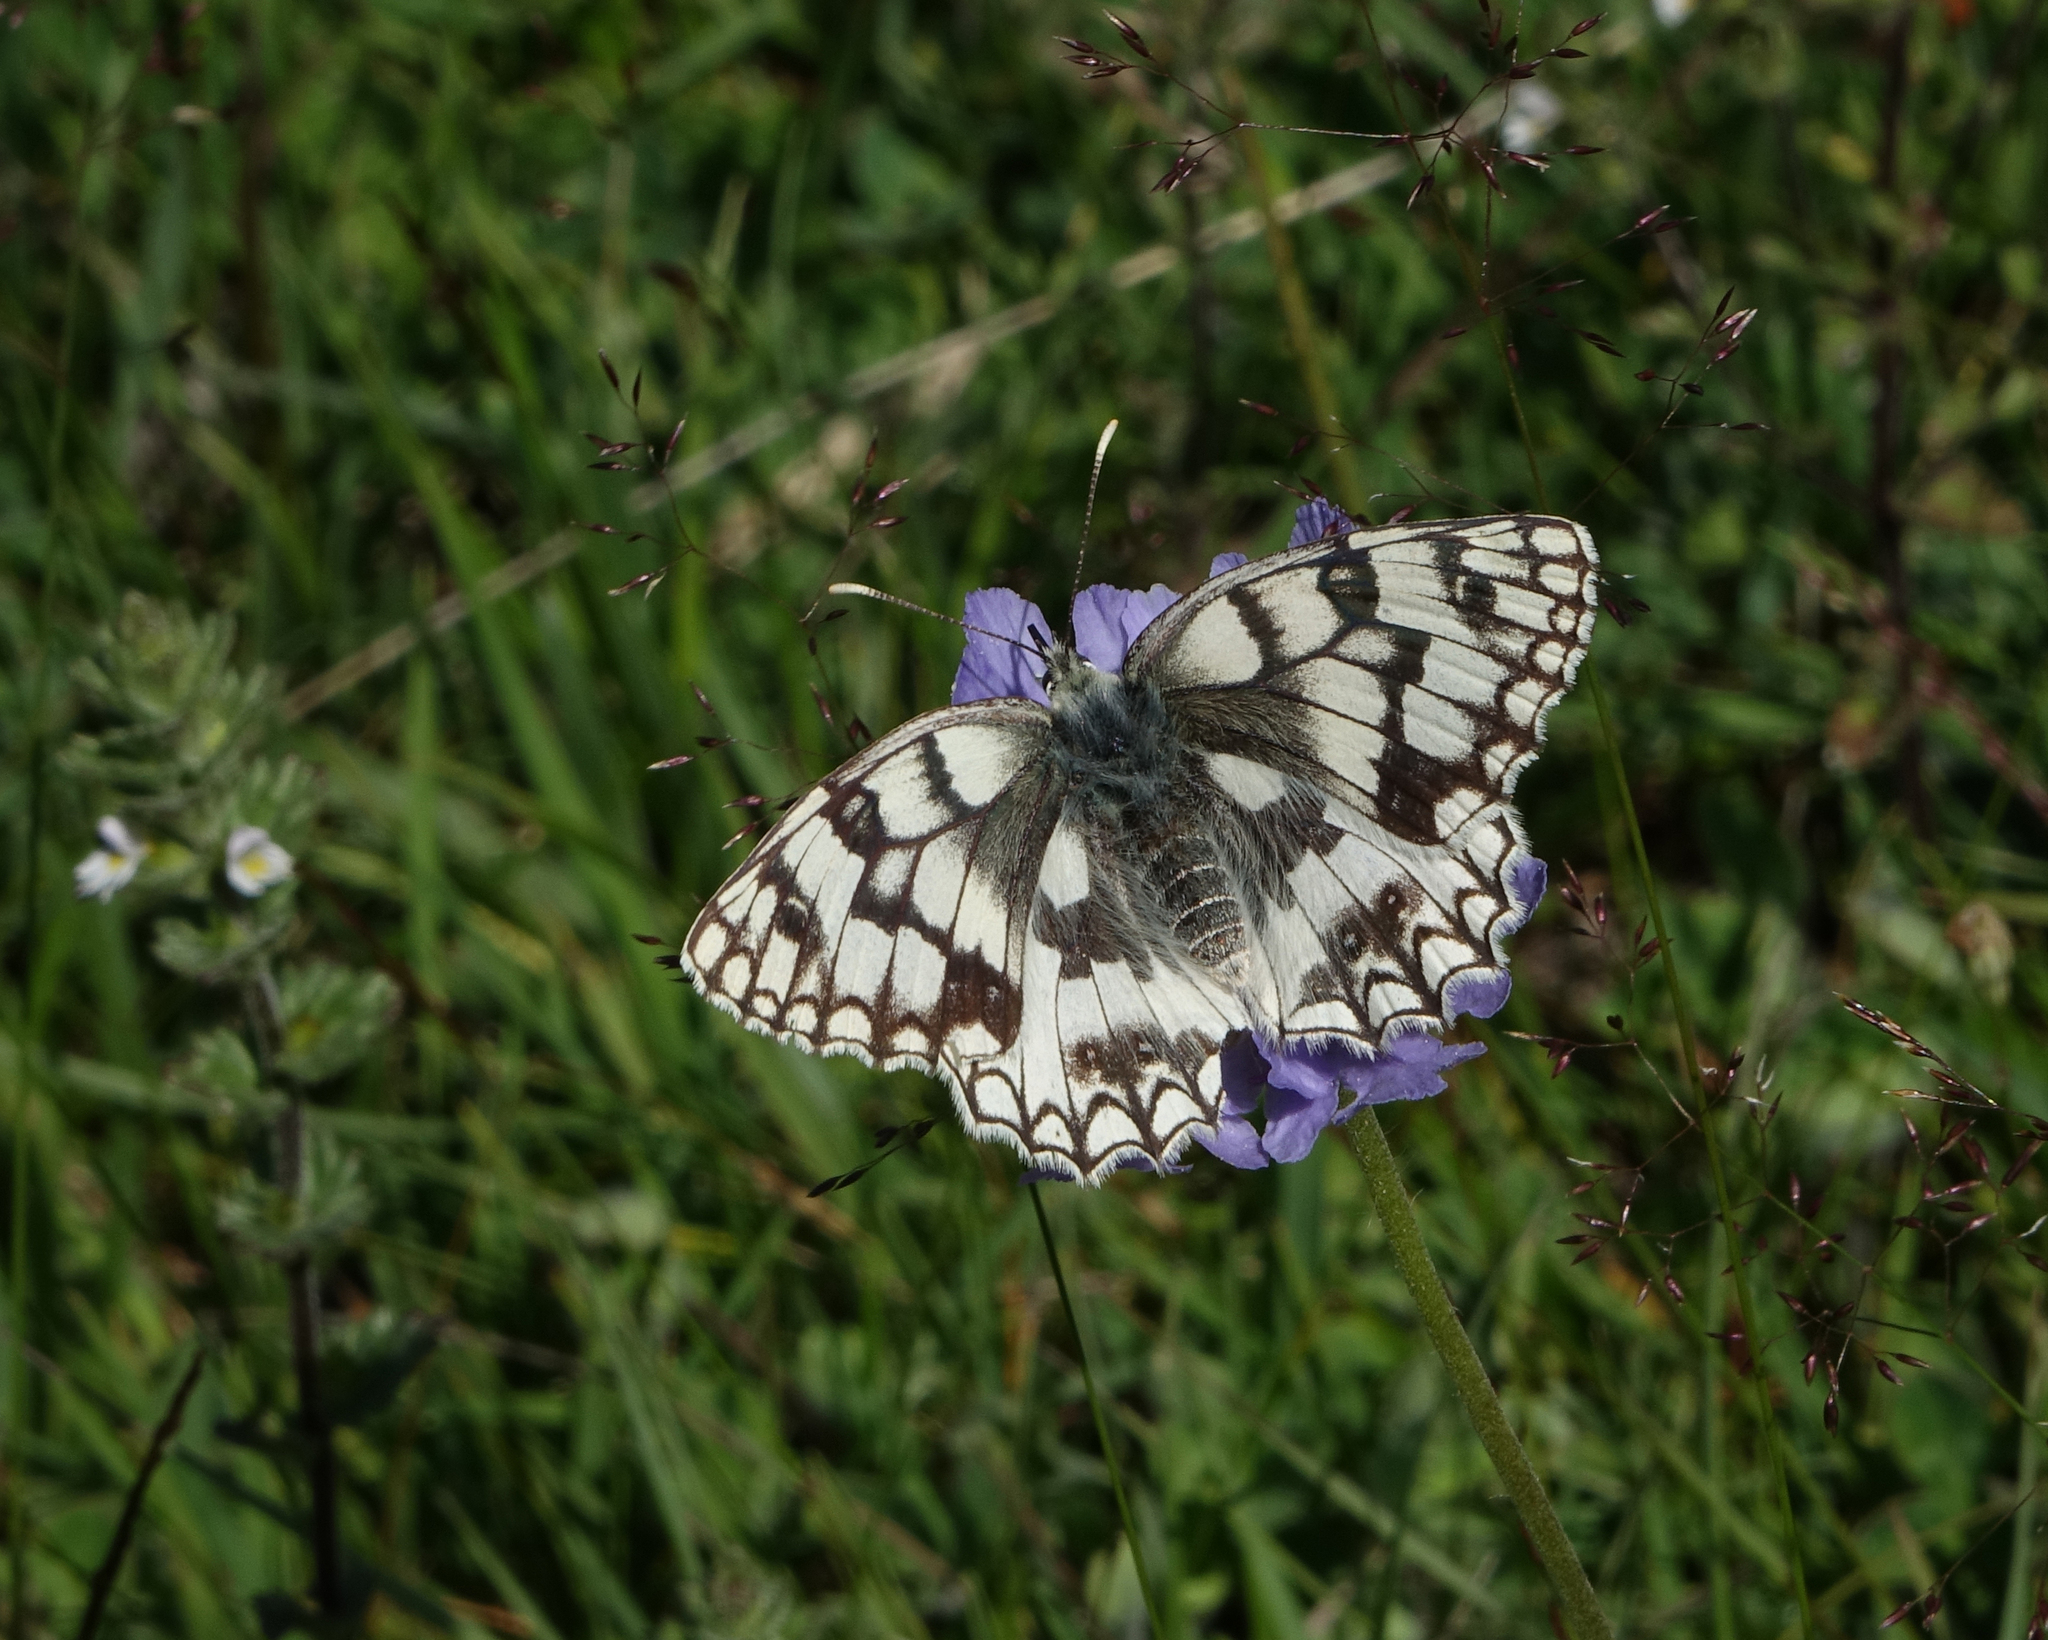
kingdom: Animalia
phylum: Arthropoda
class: Insecta
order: Lepidoptera
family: Nymphalidae
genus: Melanargia
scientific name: Melanargia japygia
